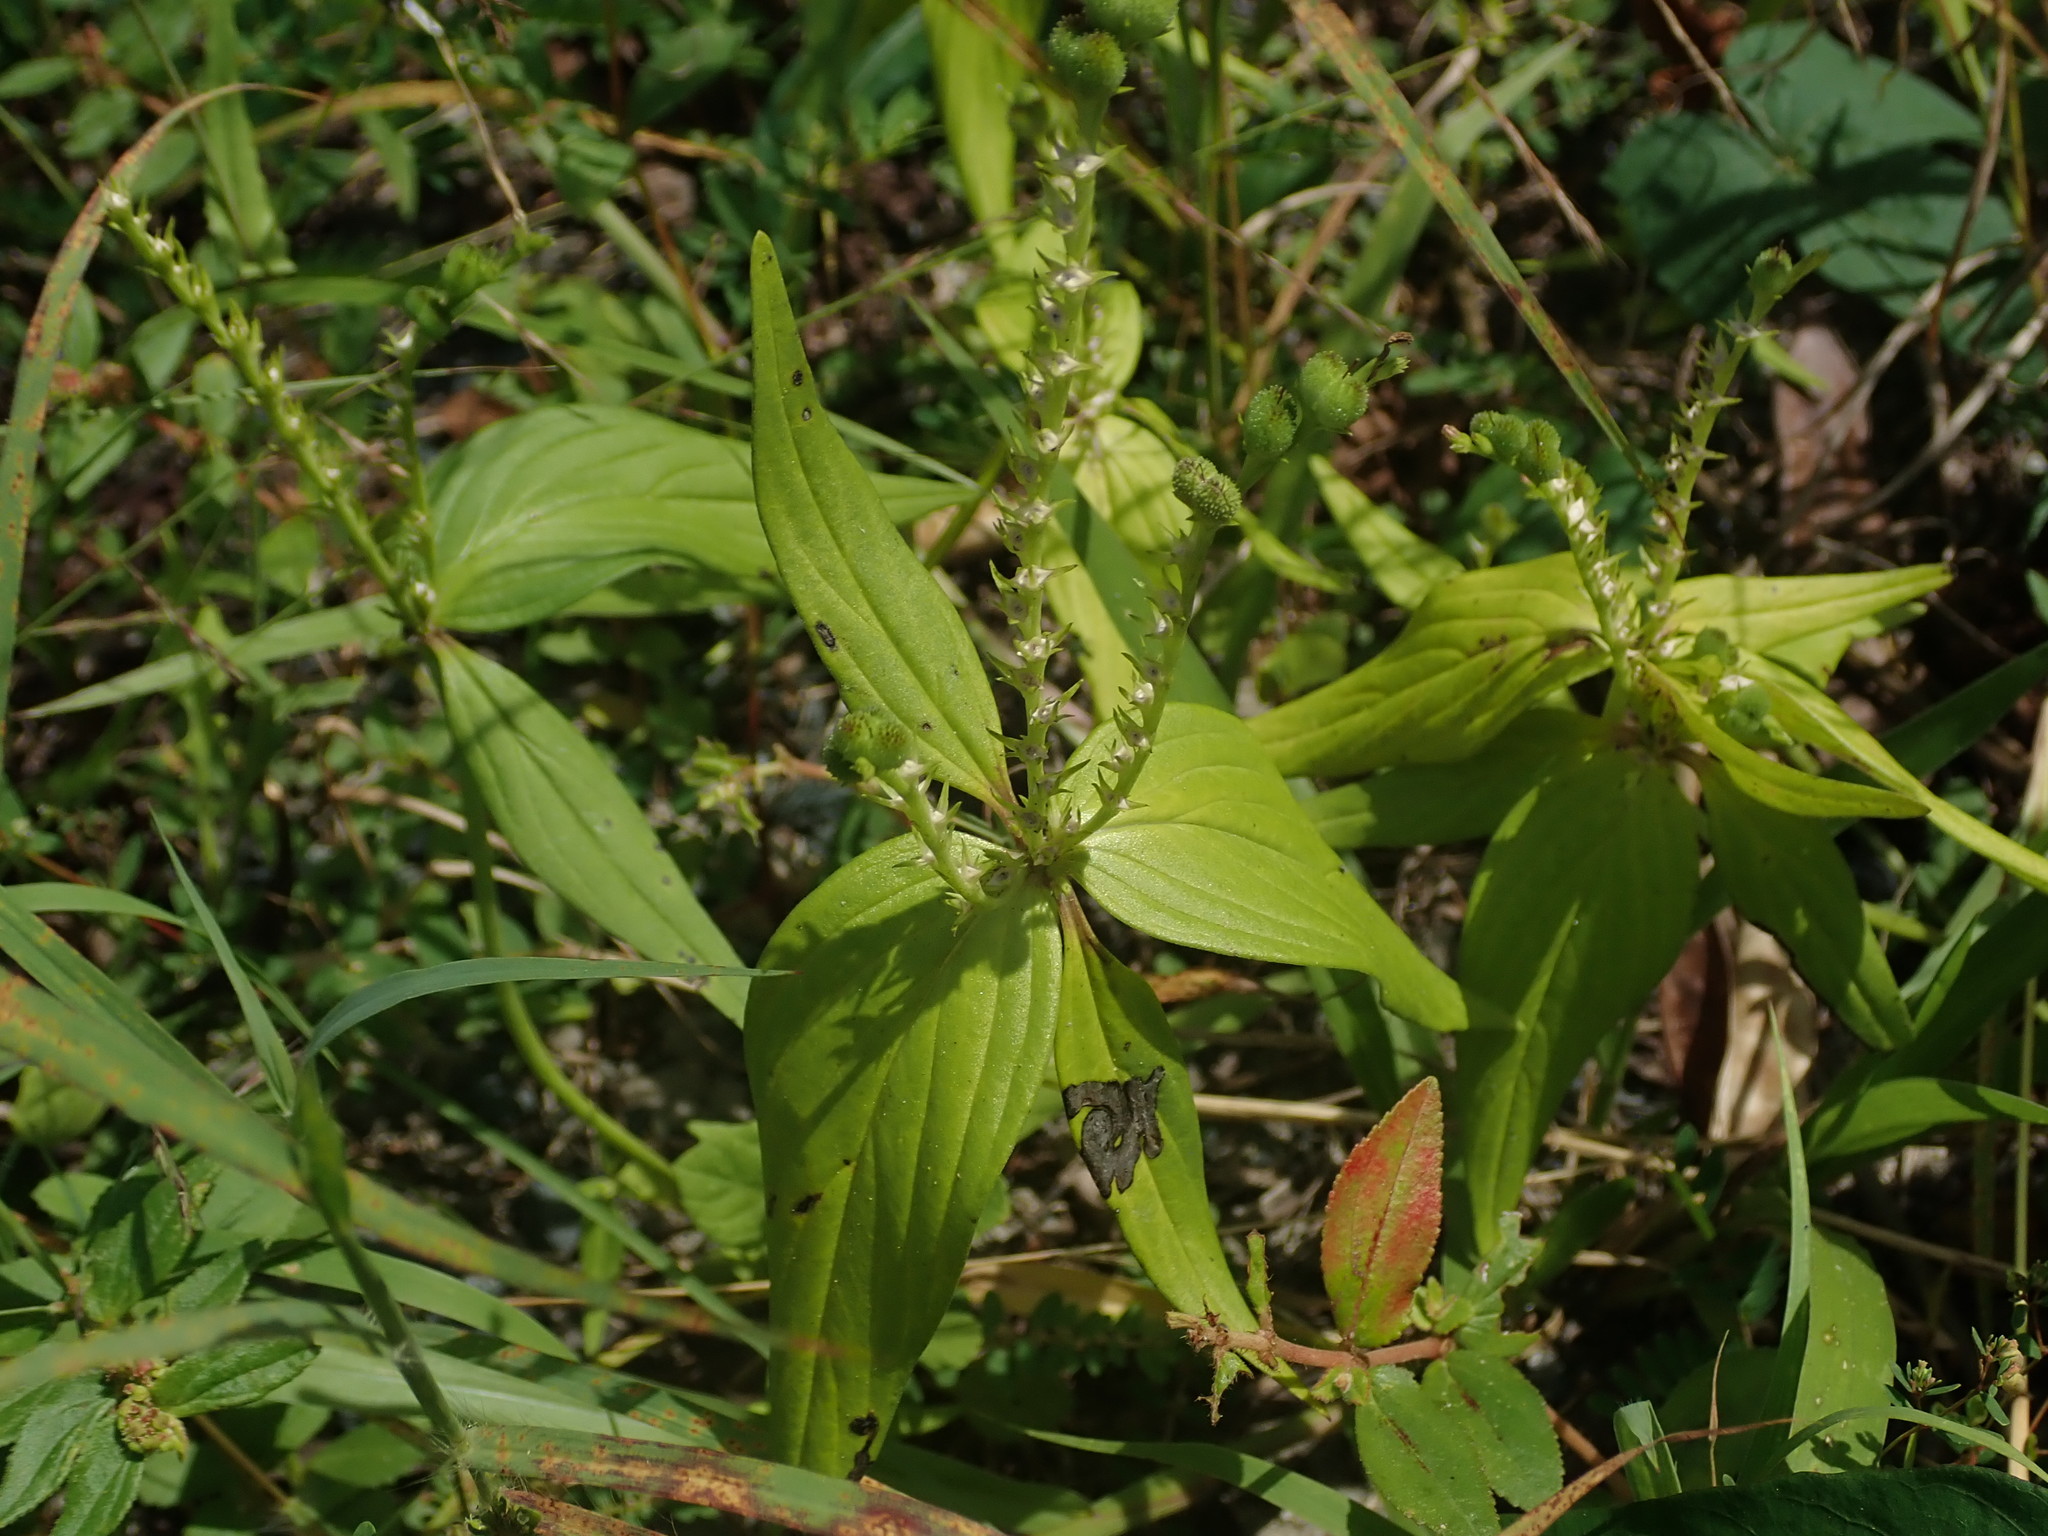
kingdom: Plantae
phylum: Tracheophyta
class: Magnoliopsida
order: Gentianales
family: Loganiaceae
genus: Spigelia
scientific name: Spigelia anthelmia
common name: West indian-pink
